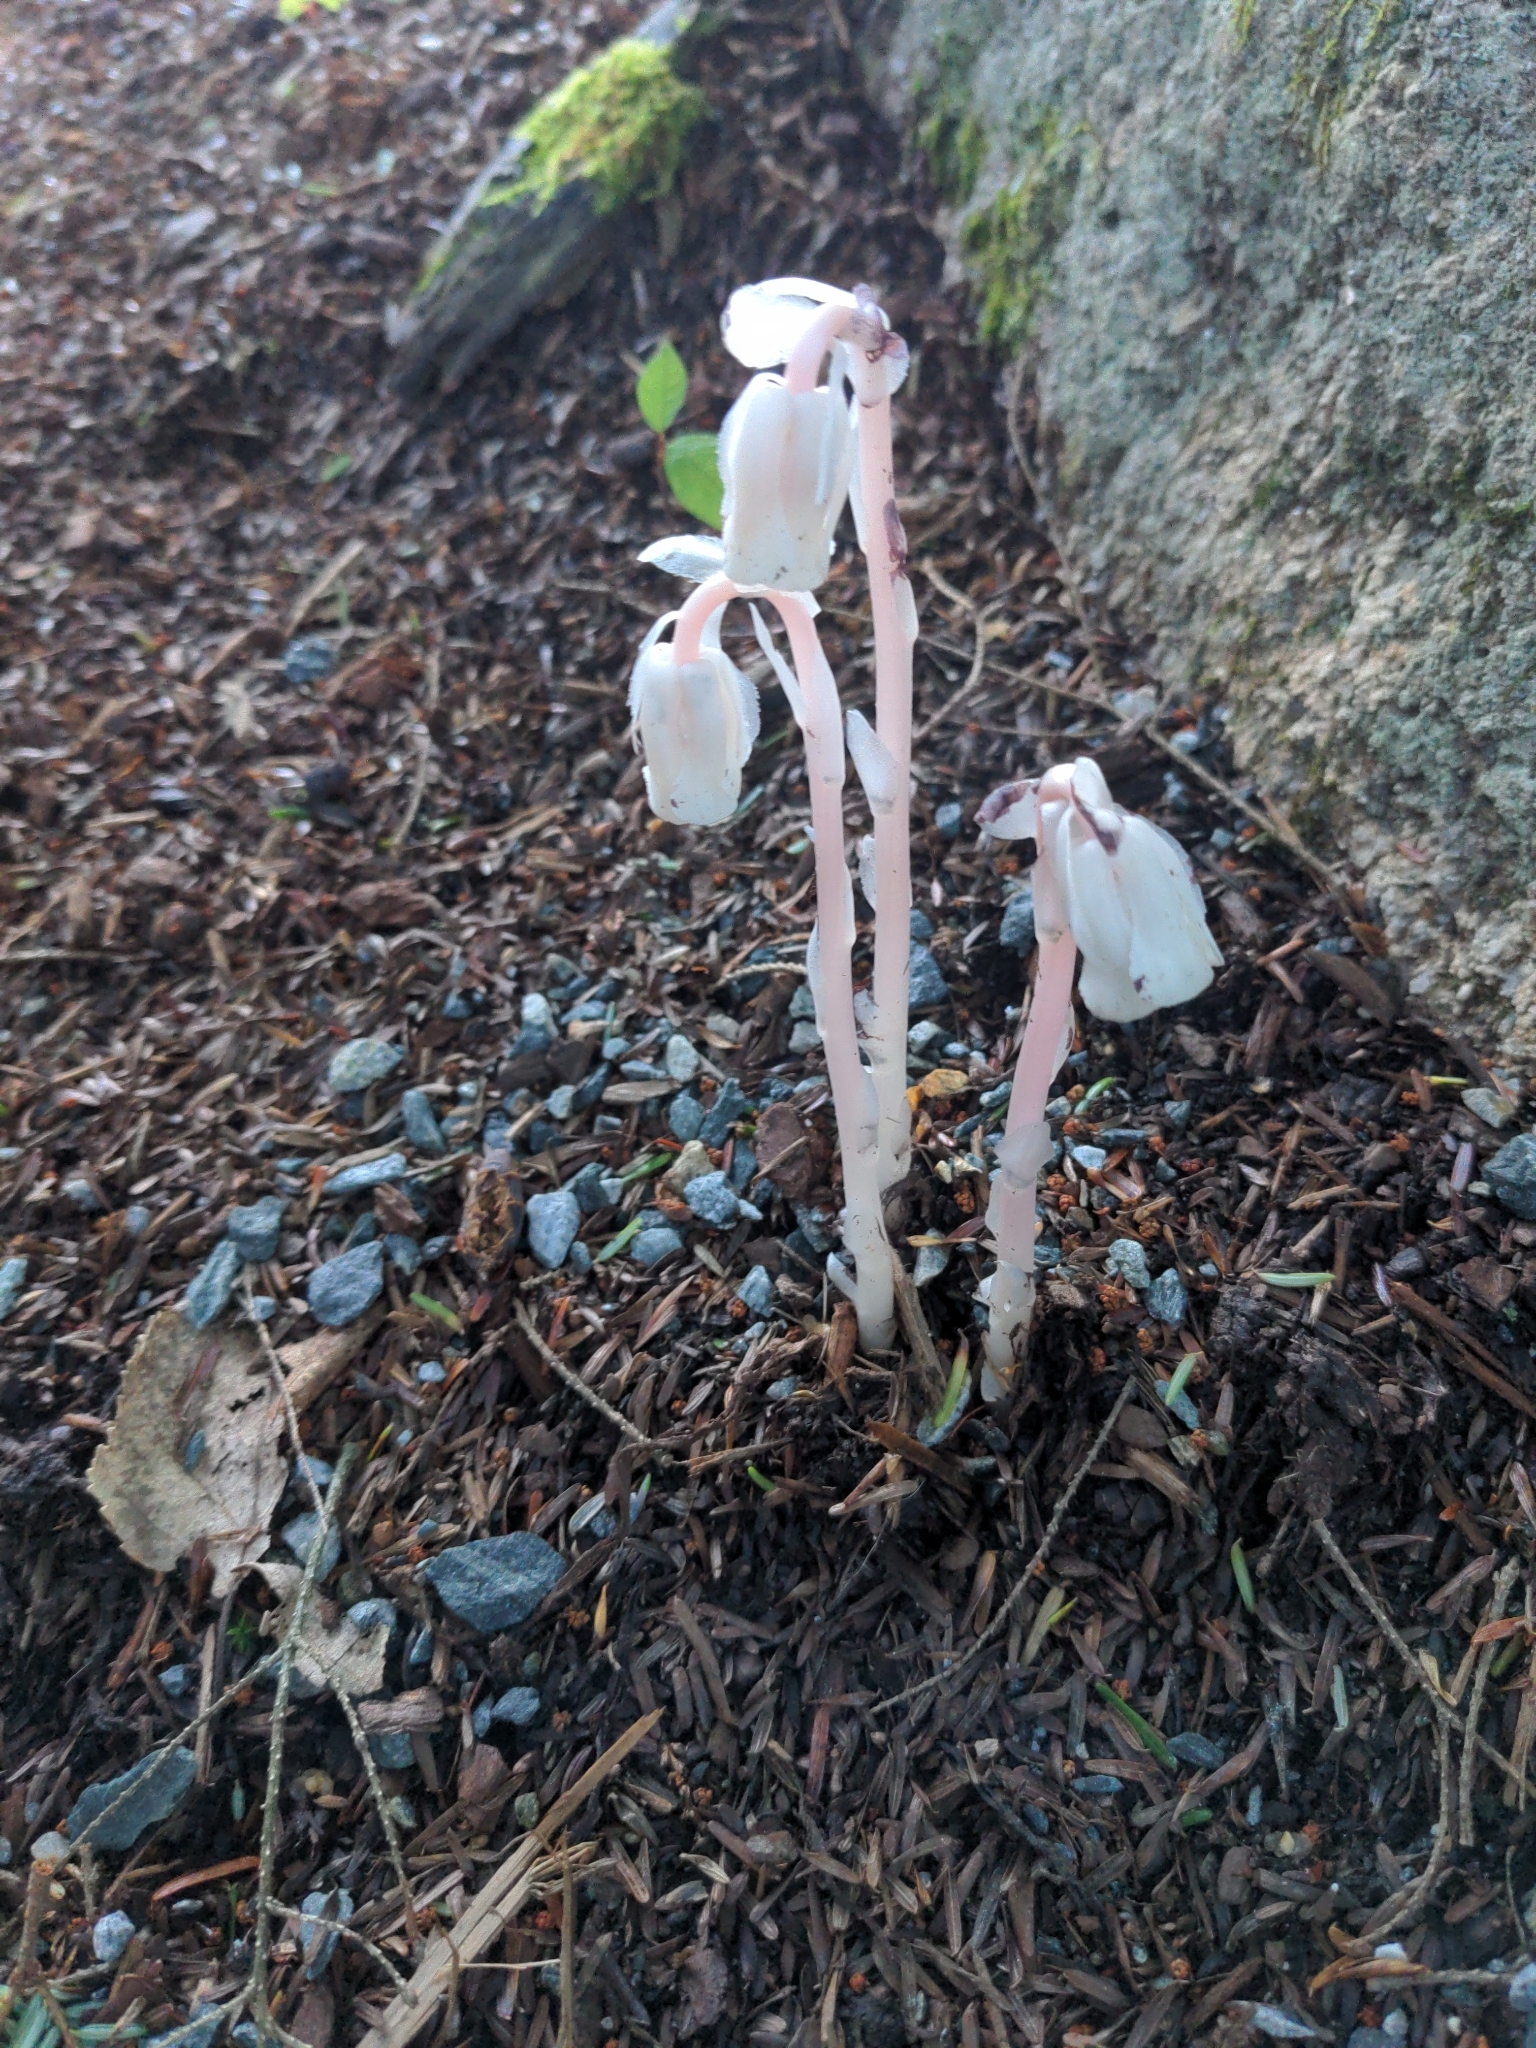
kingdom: Plantae
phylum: Tracheophyta
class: Magnoliopsida
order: Ericales
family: Ericaceae
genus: Monotropa
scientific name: Monotropa uniflora
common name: Convulsion root
